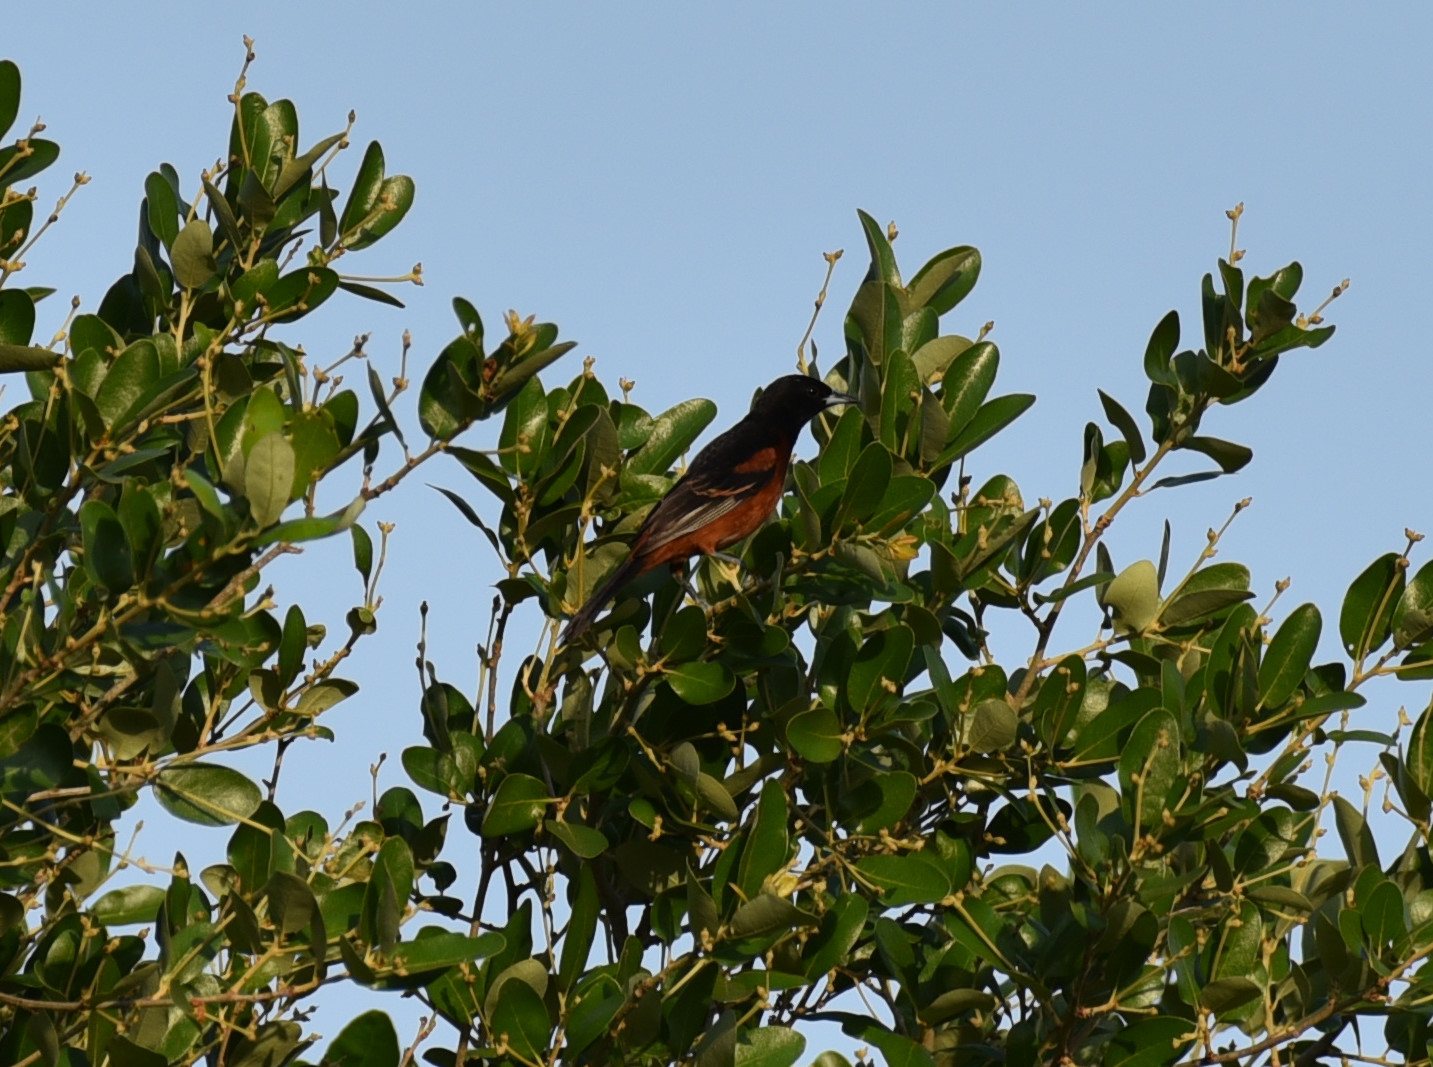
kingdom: Animalia
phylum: Chordata
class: Aves
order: Passeriformes
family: Icteridae
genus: Icterus
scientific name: Icterus spurius
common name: Orchard oriole
